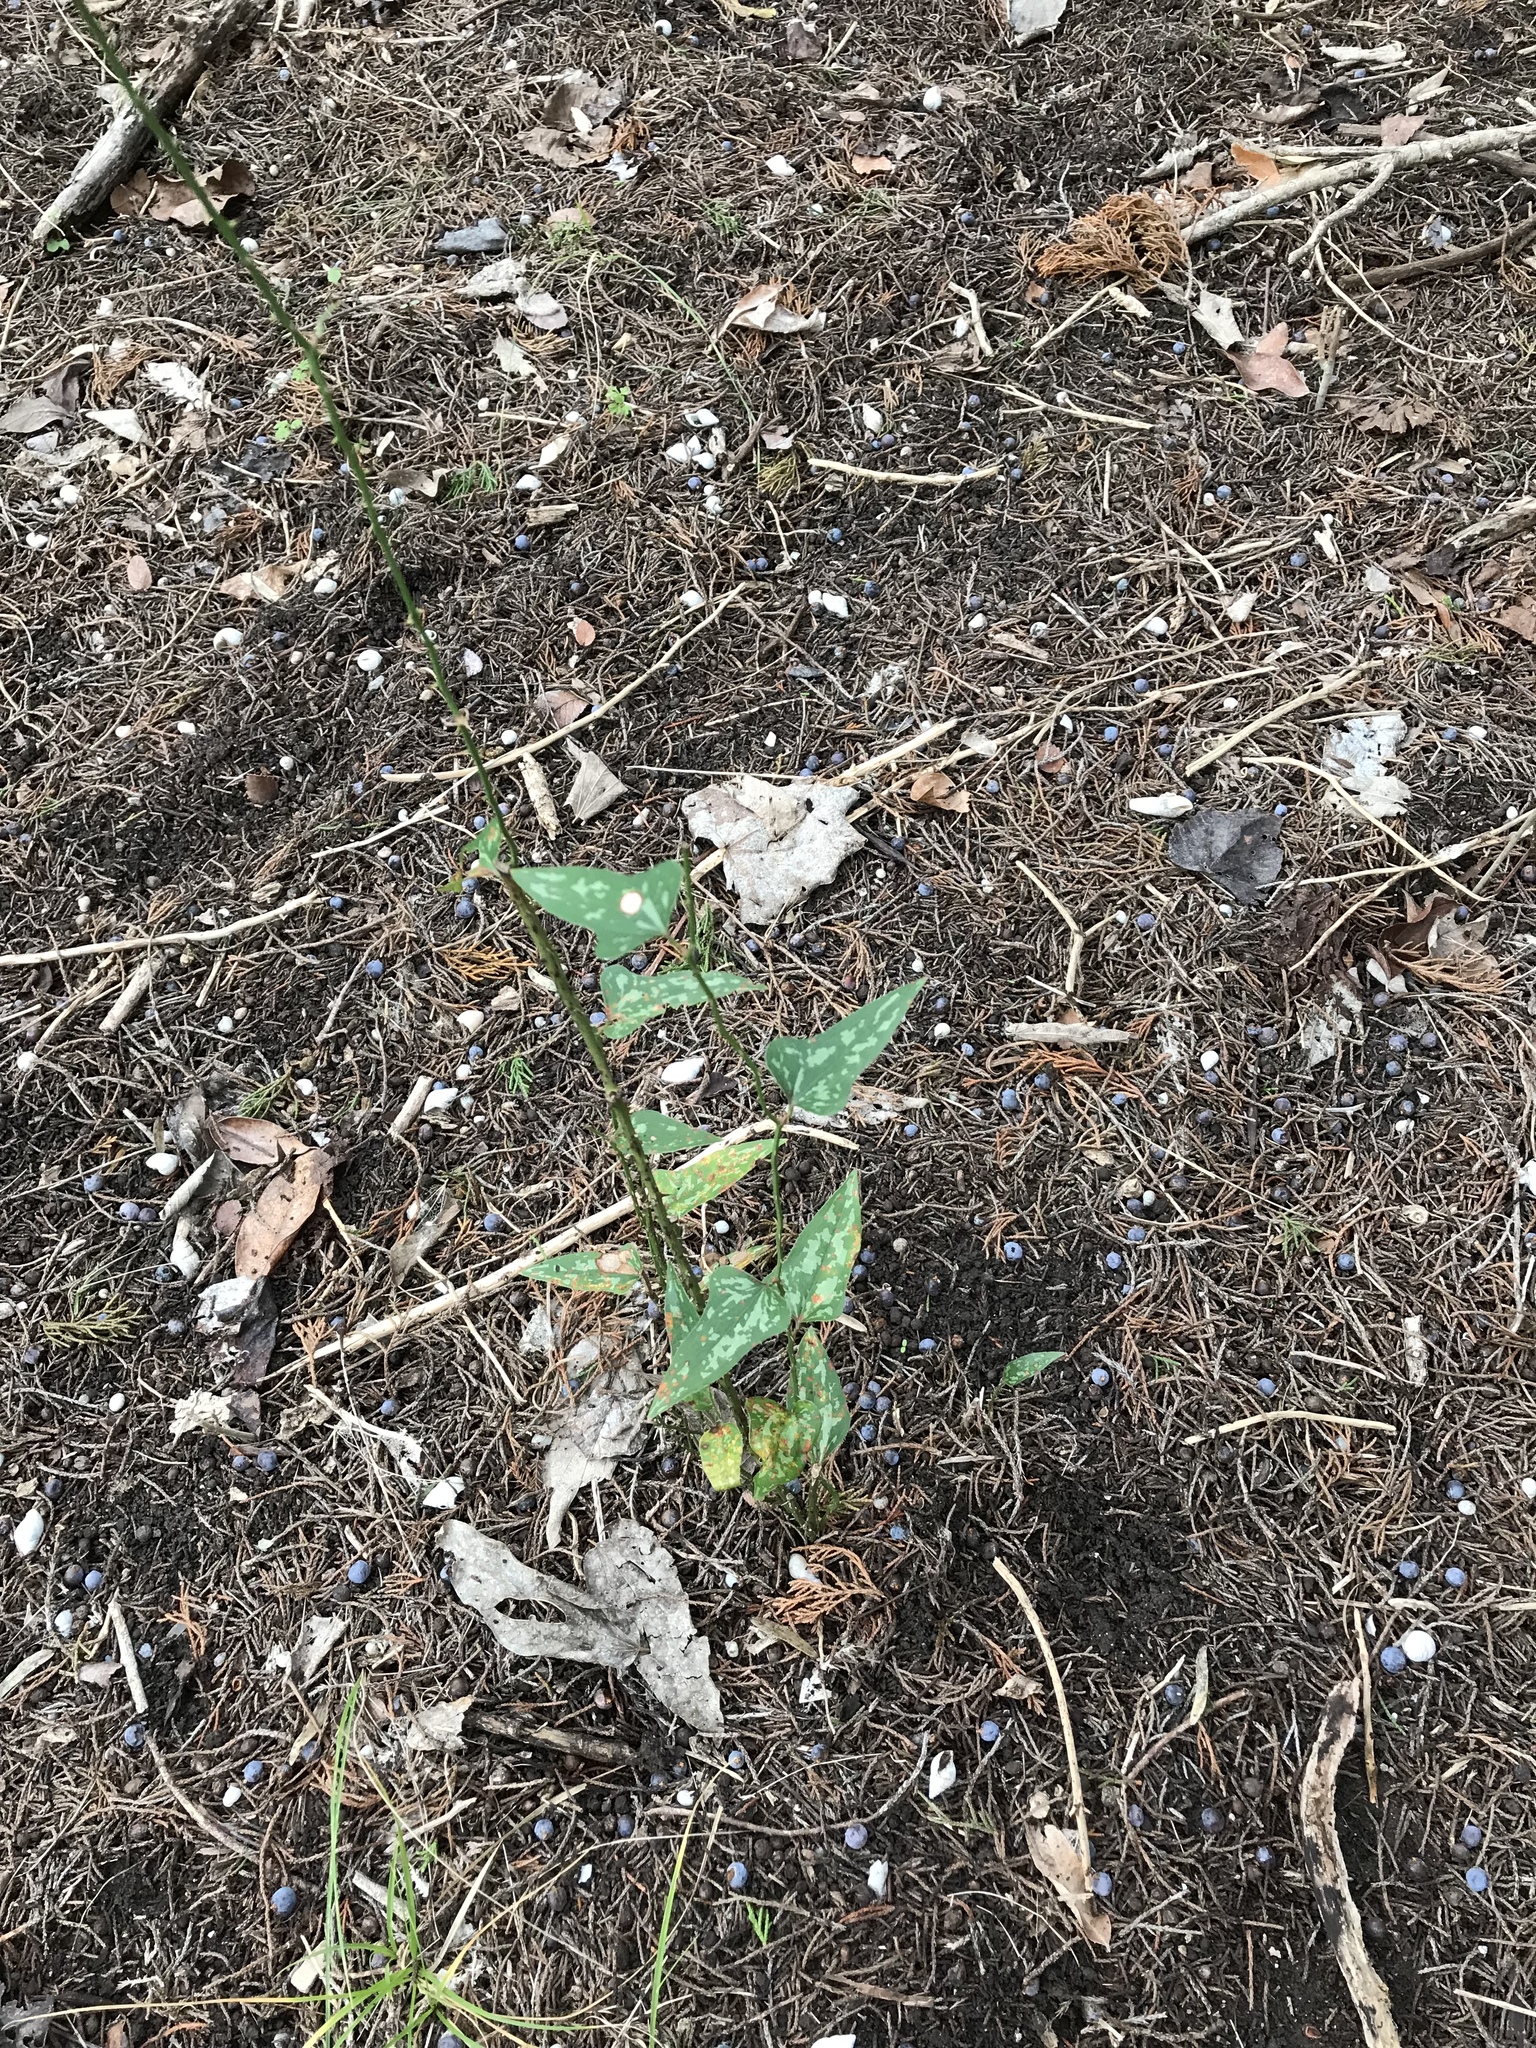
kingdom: Plantae
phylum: Tracheophyta
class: Liliopsida
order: Liliales
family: Smilacaceae
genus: Smilax
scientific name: Smilax bona-nox
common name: Catbrier
